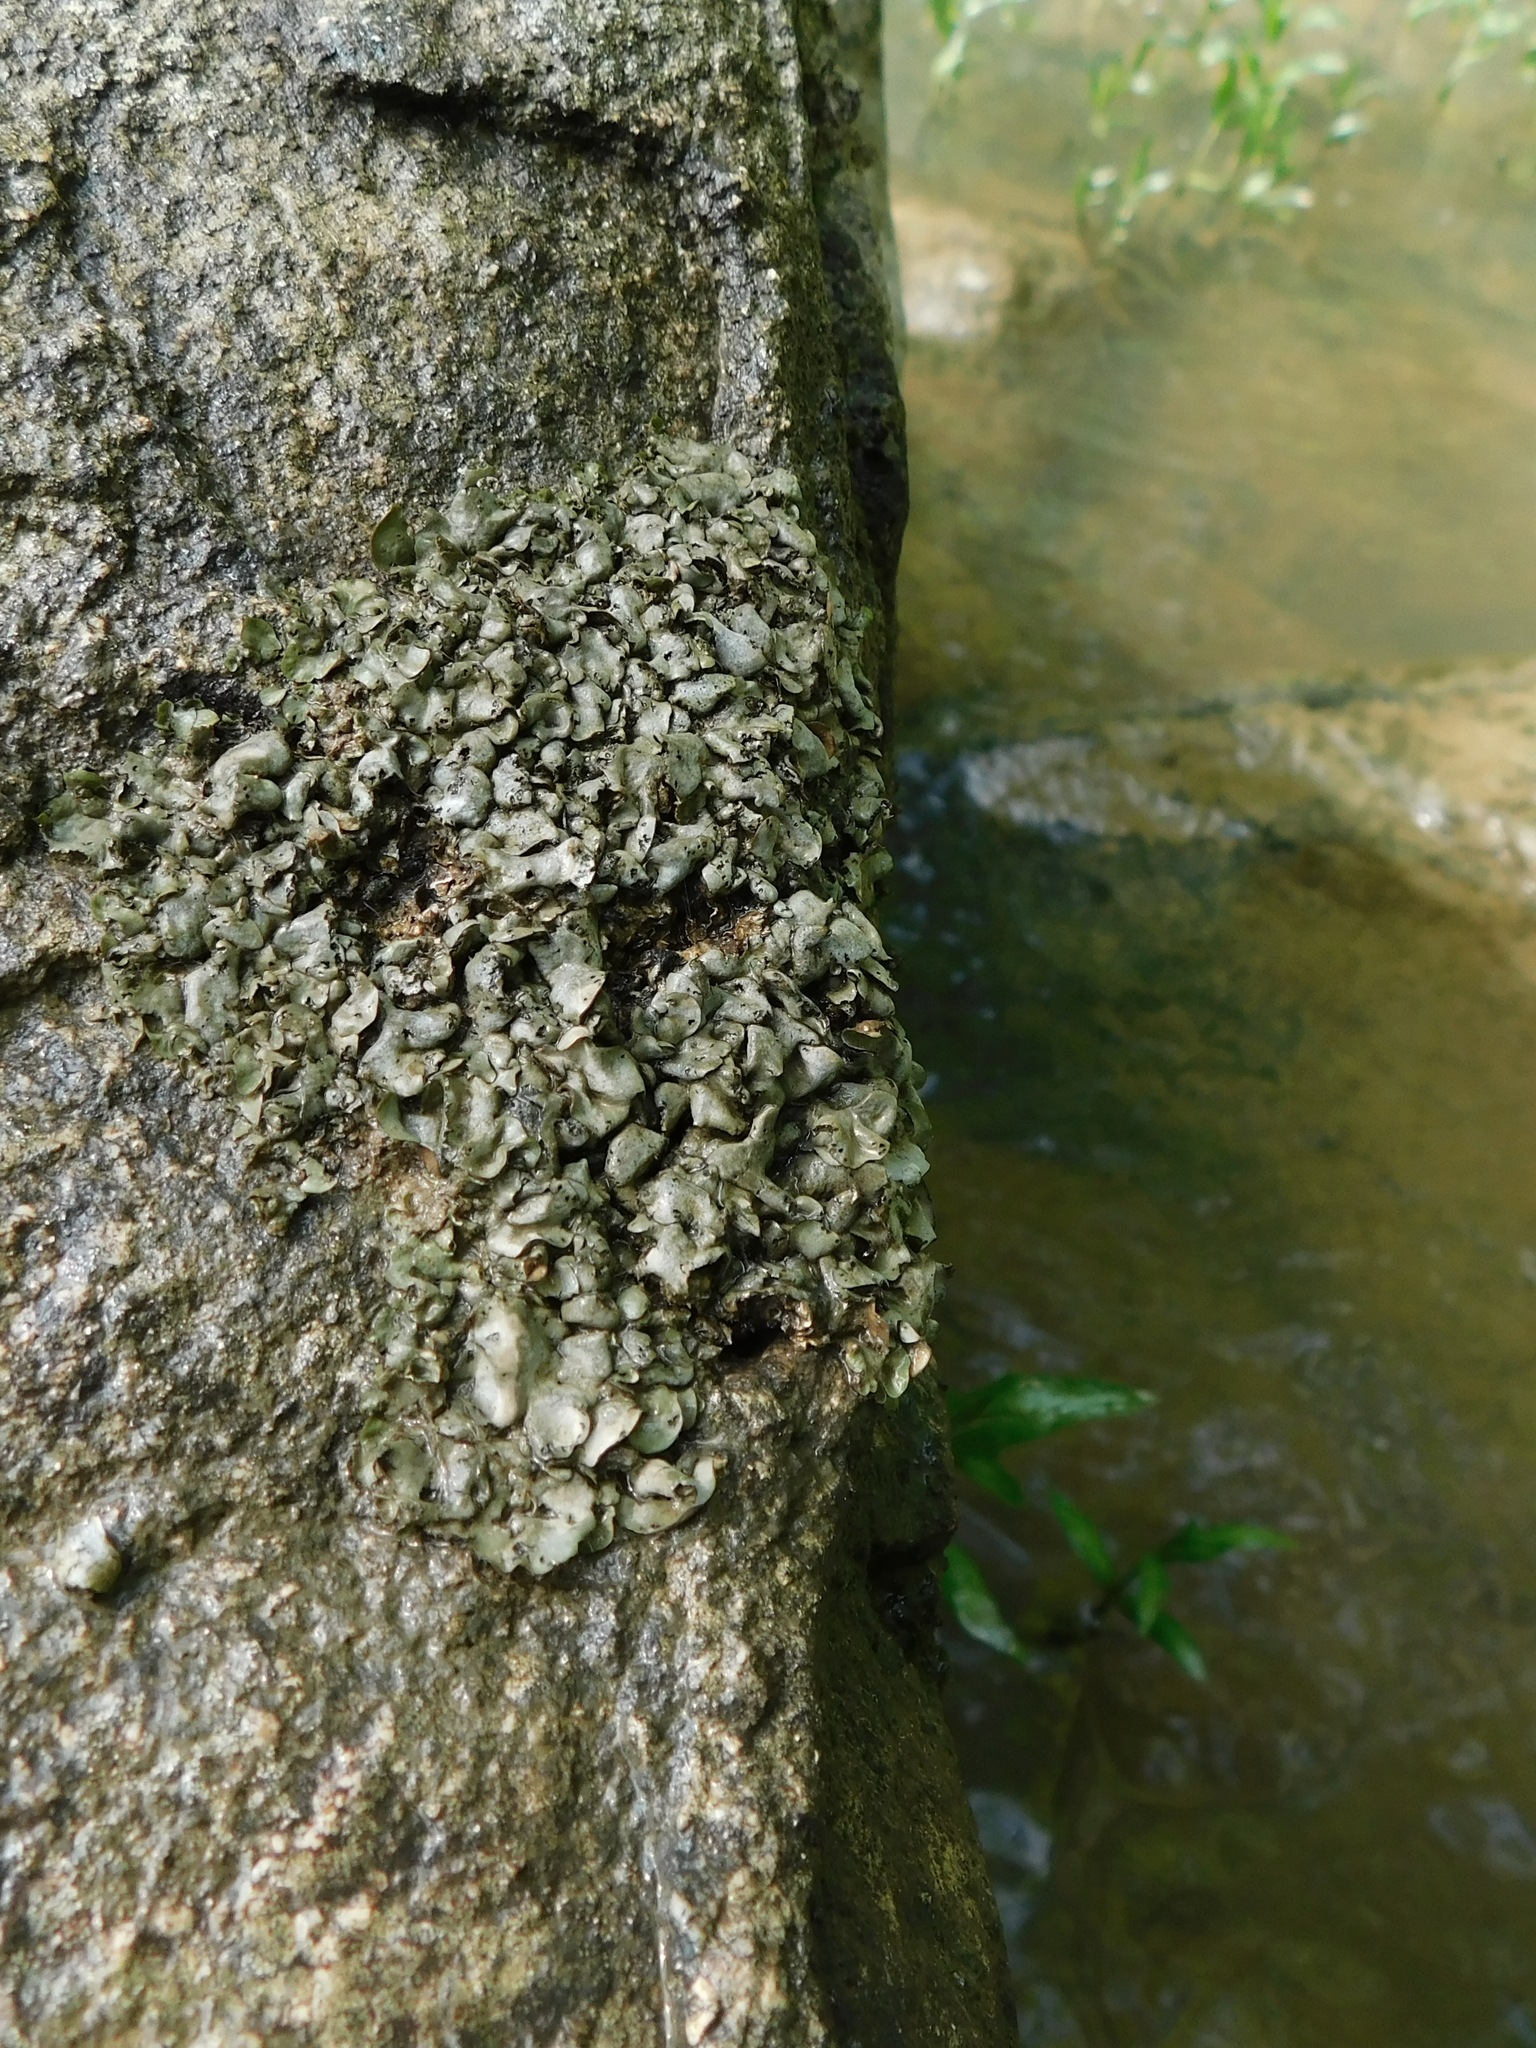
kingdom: Fungi
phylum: Ascomycota
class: Eurotiomycetes
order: Verrucariales
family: Verrucariaceae
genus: Dermatocarpon
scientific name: Dermatocarpon arenosaxi
